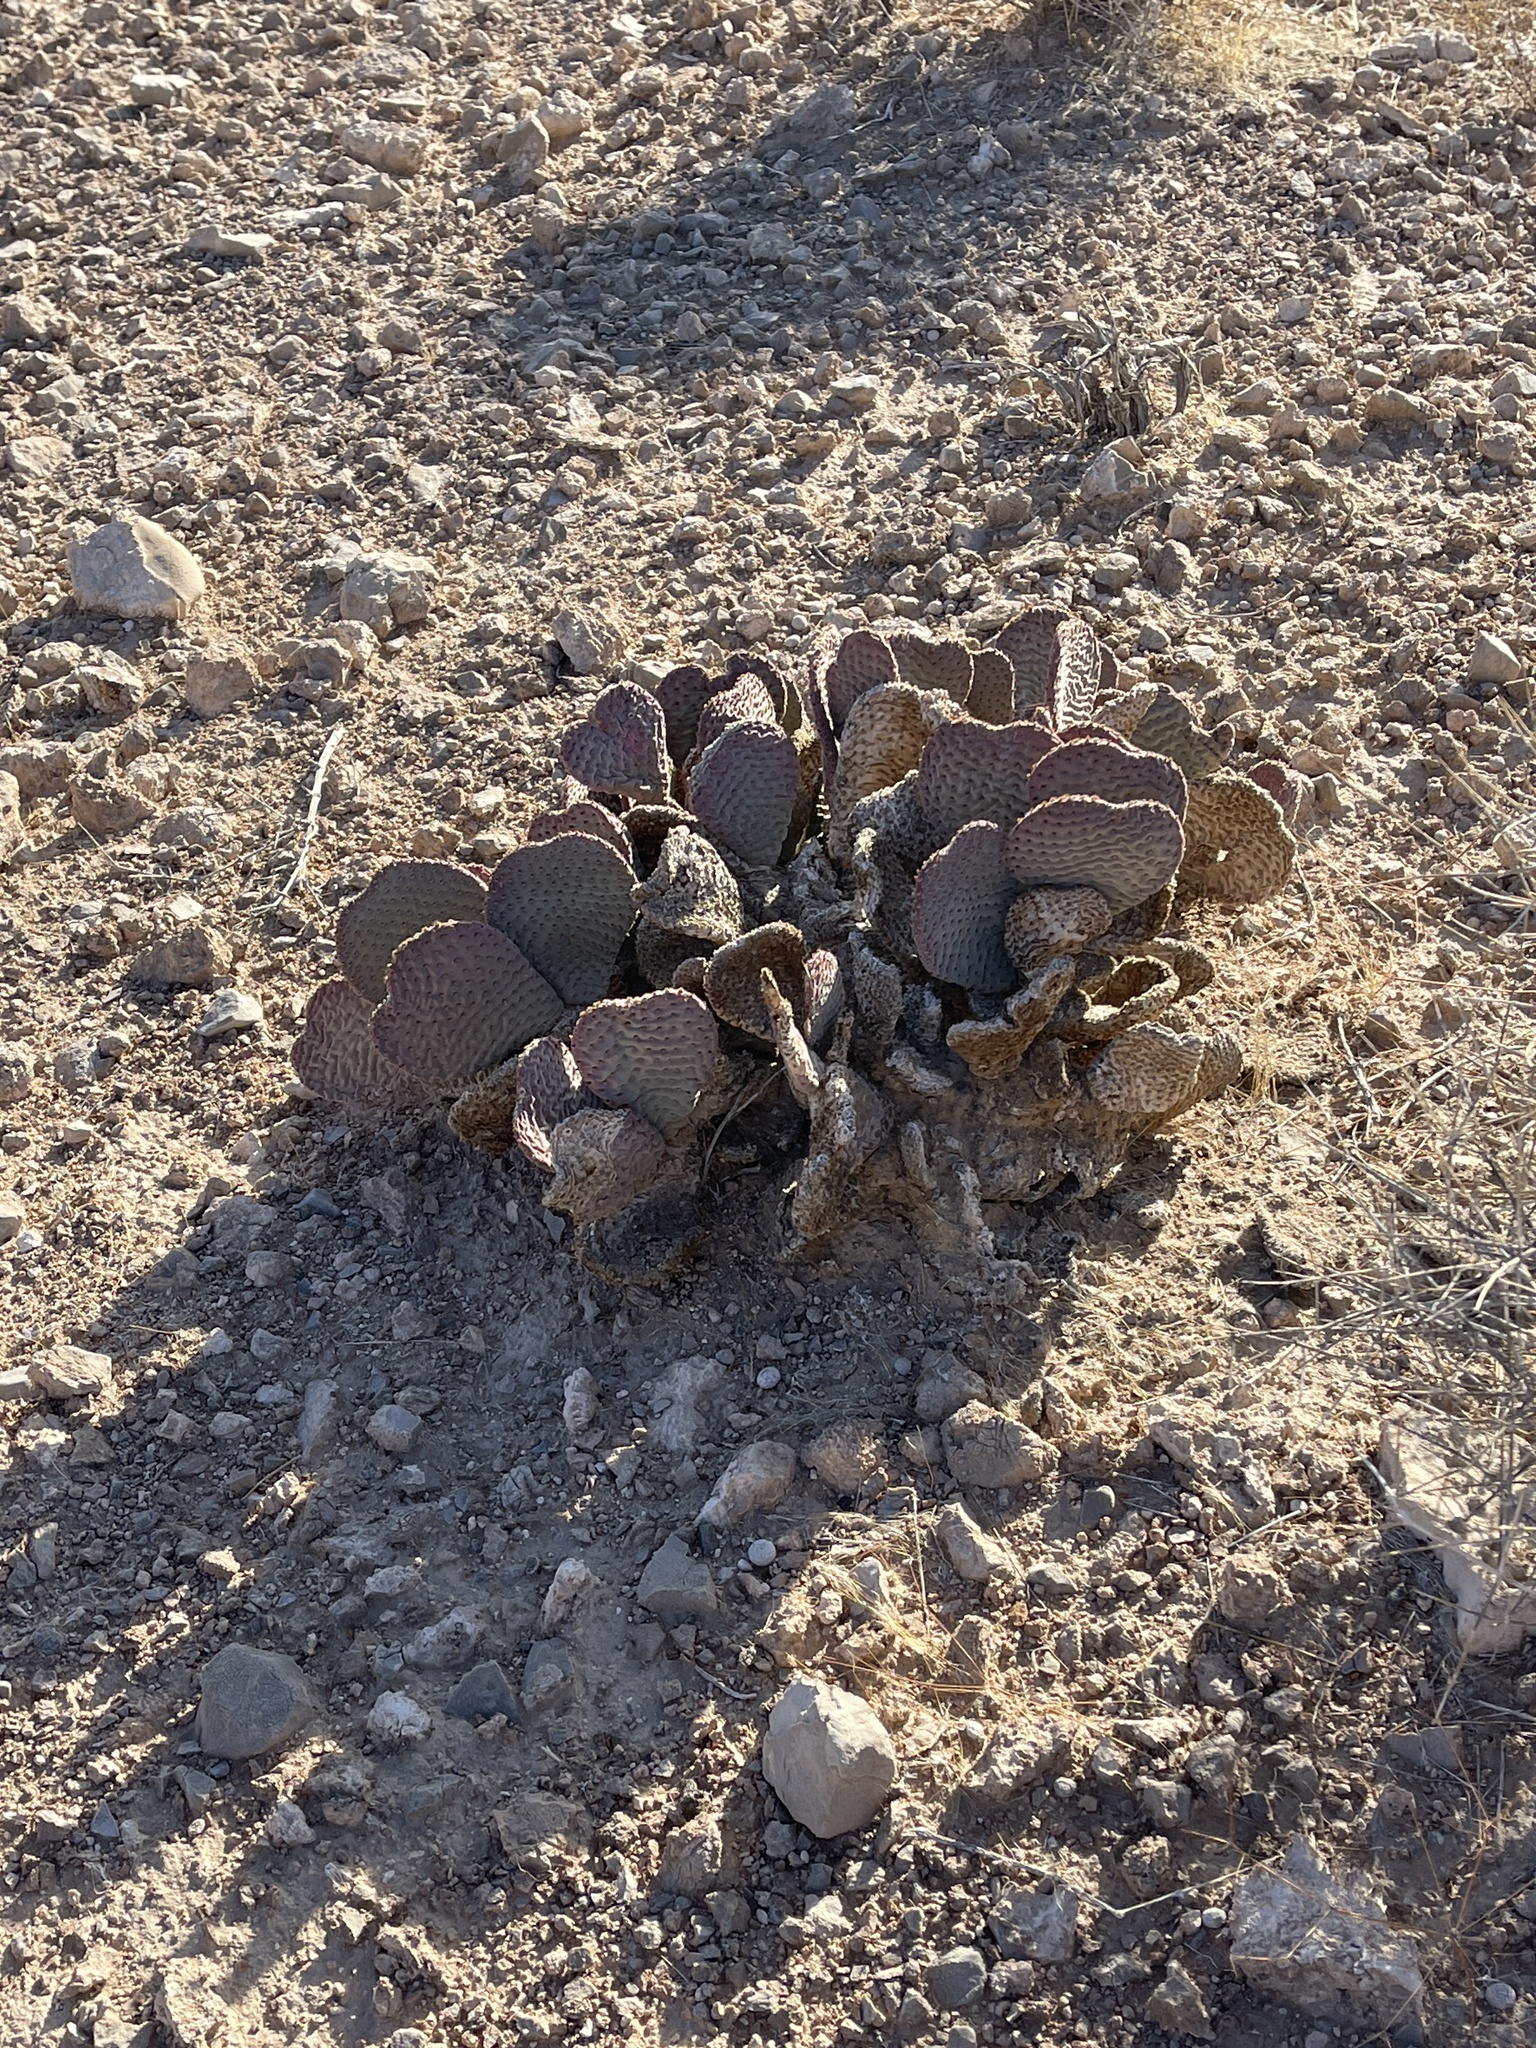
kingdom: Plantae
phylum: Tracheophyta
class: Magnoliopsida
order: Caryophyllales
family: Cactaceae
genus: Opuntia
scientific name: Opuntia basilaris
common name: Beavertail prickly-pear
